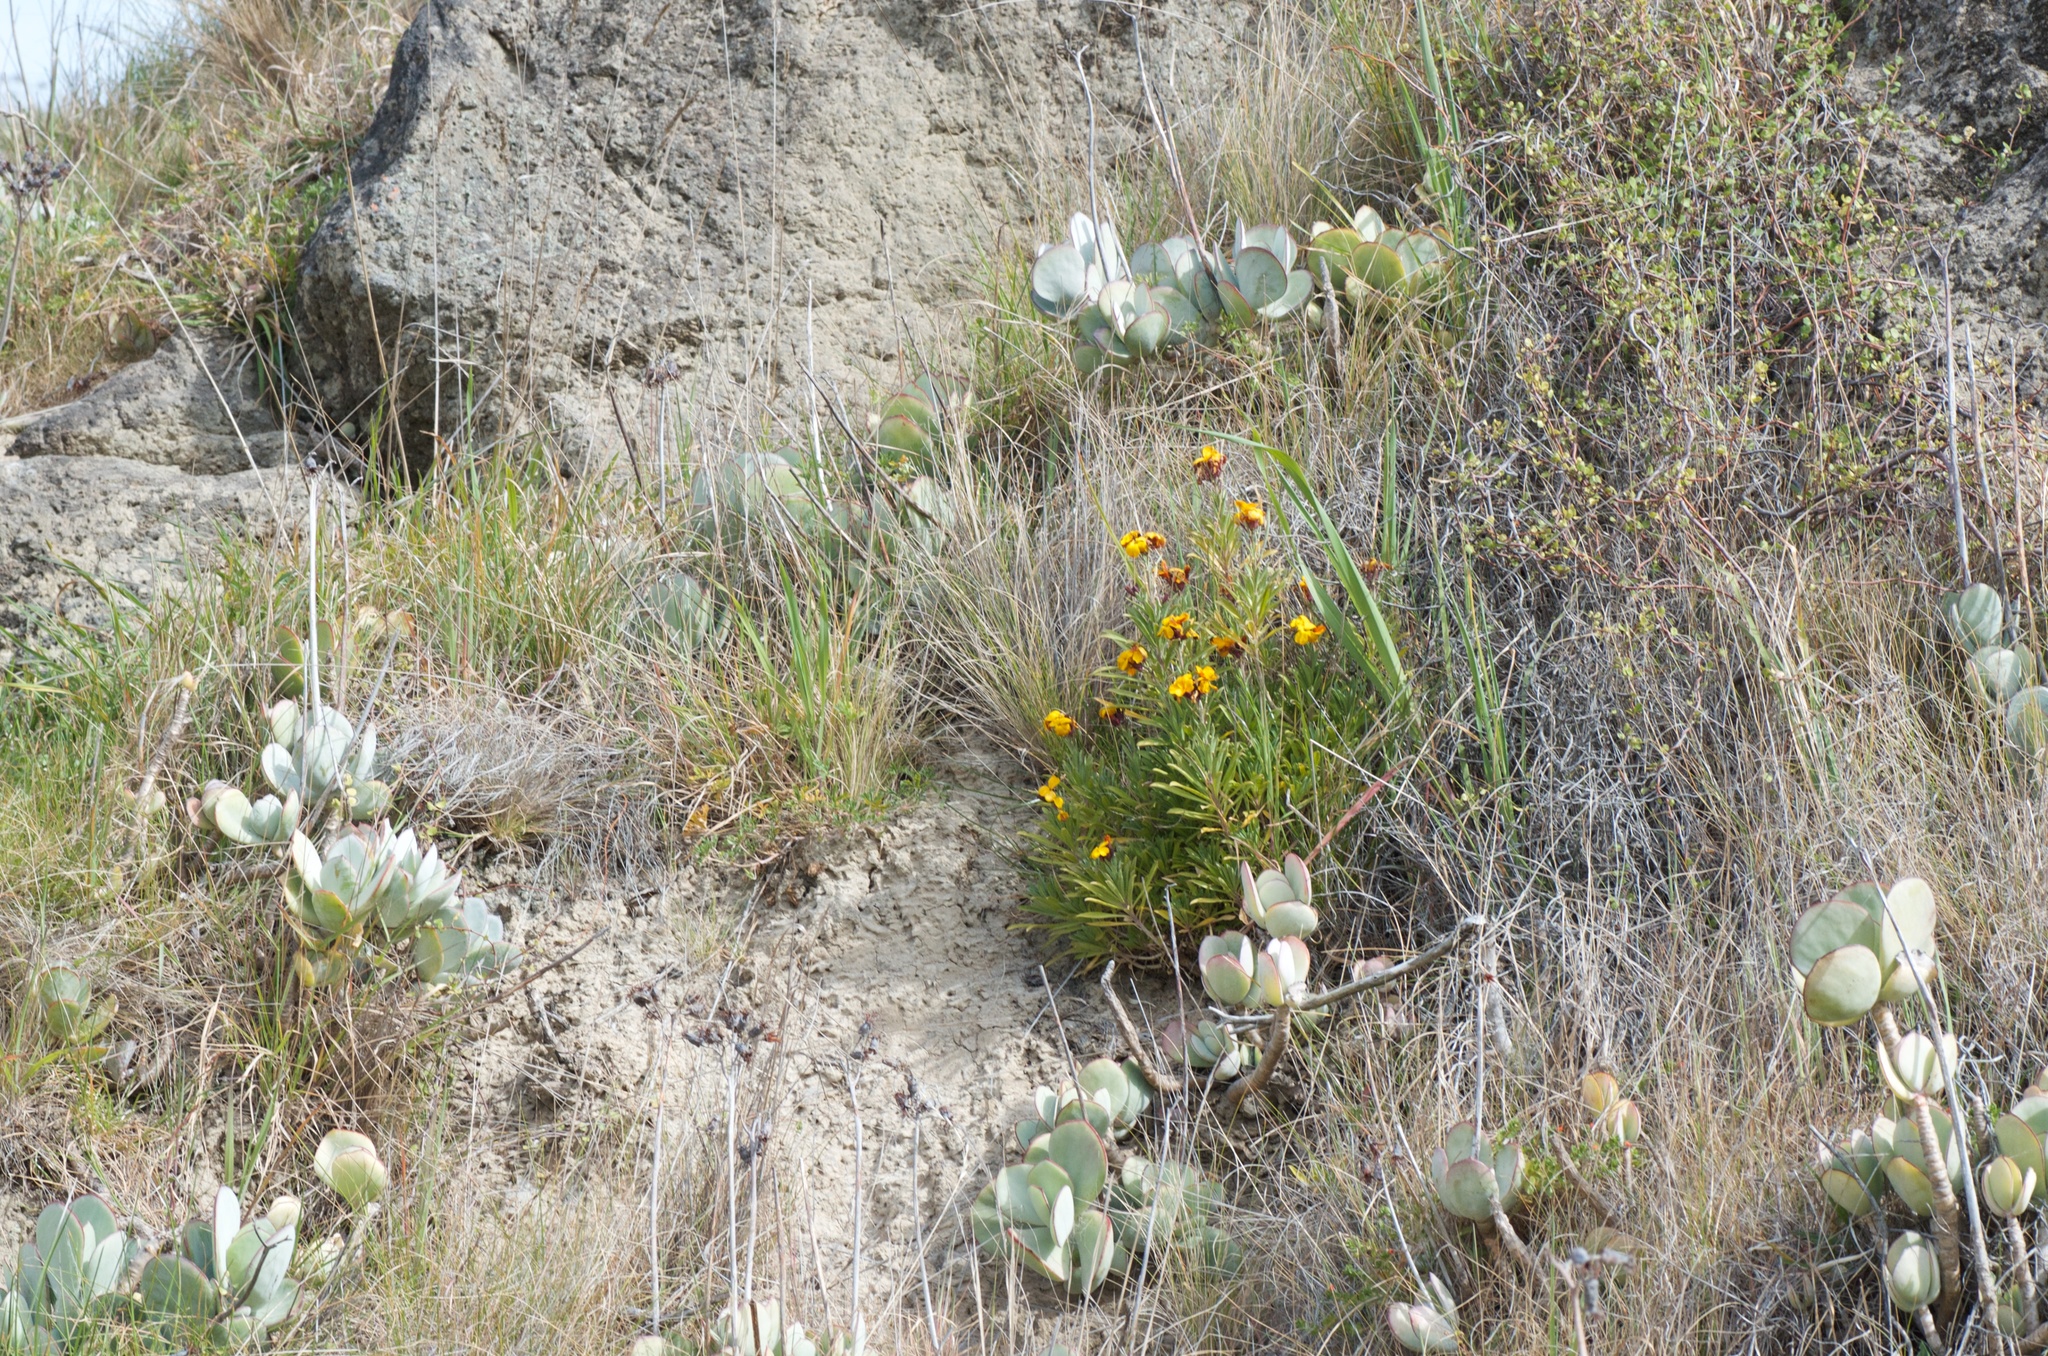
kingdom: Plantae
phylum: Tracheophyta
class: Magnoliopsida
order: Brassicales
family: Brassicaceae
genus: Erysimum
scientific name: Erysimum cheiri
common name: Wallflower
